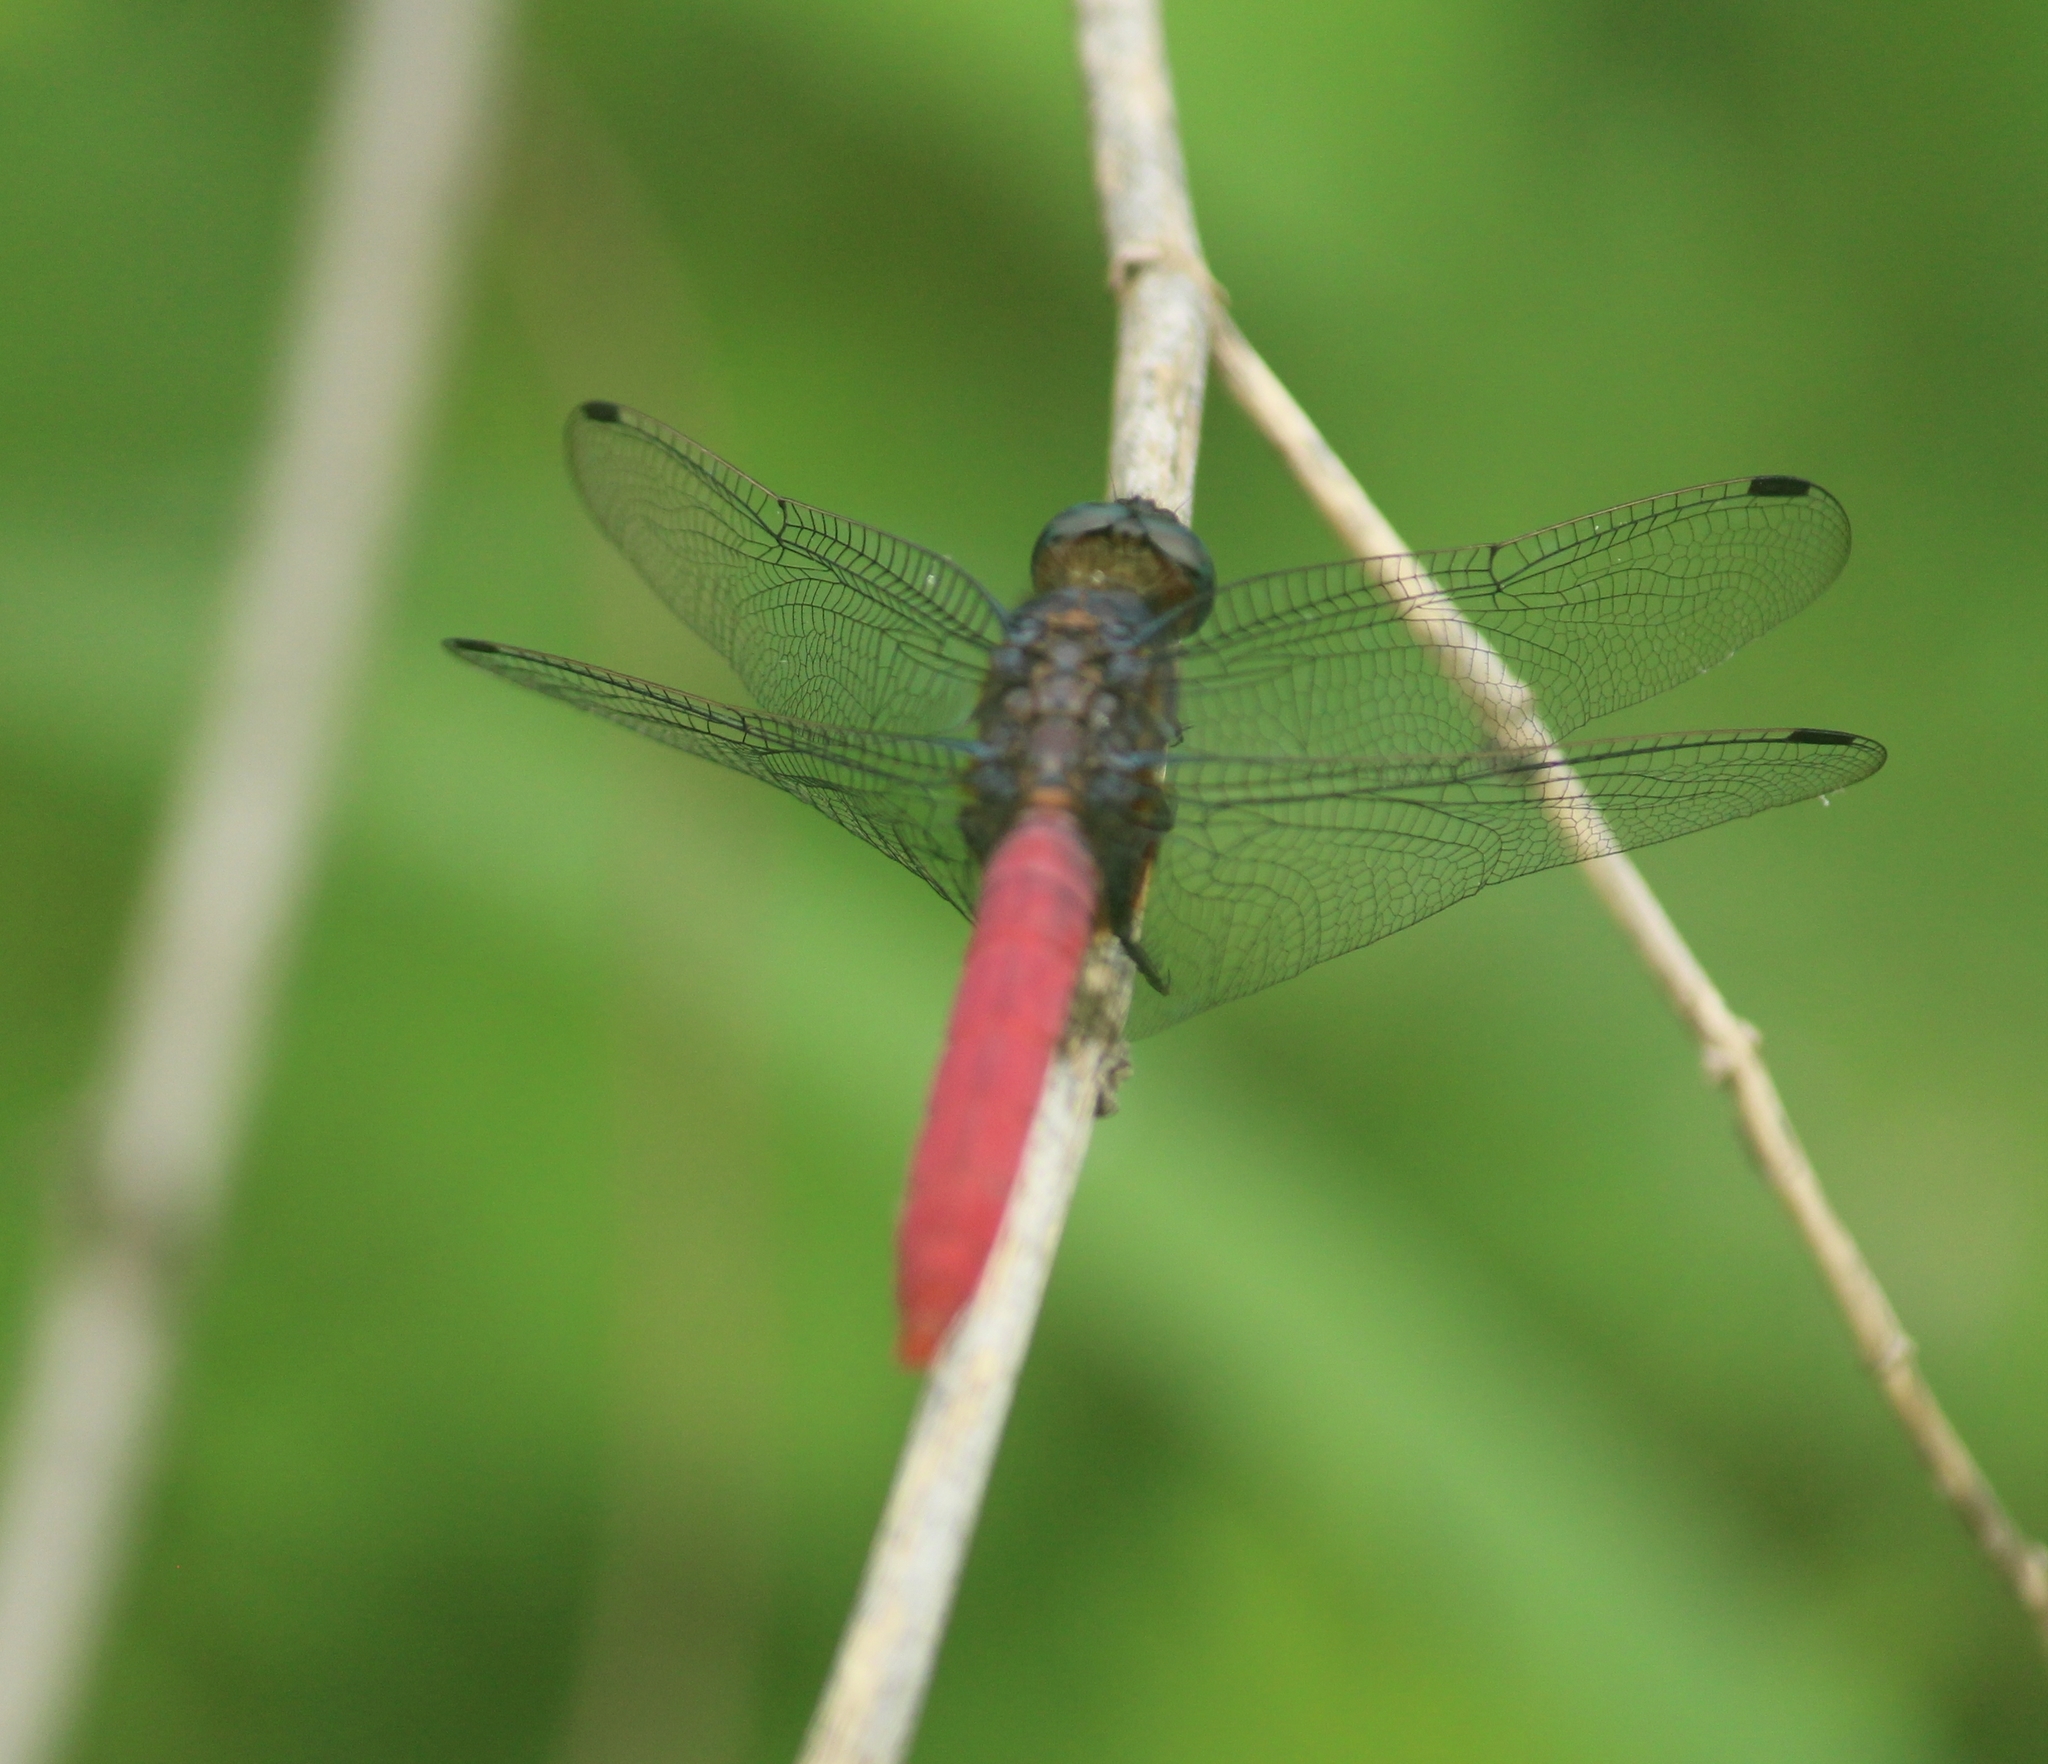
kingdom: Animalia
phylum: Arthropoda
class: Insecta
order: Odonata
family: Libellulidae
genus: Orthetrum
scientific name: Orthetrum pruinosum
